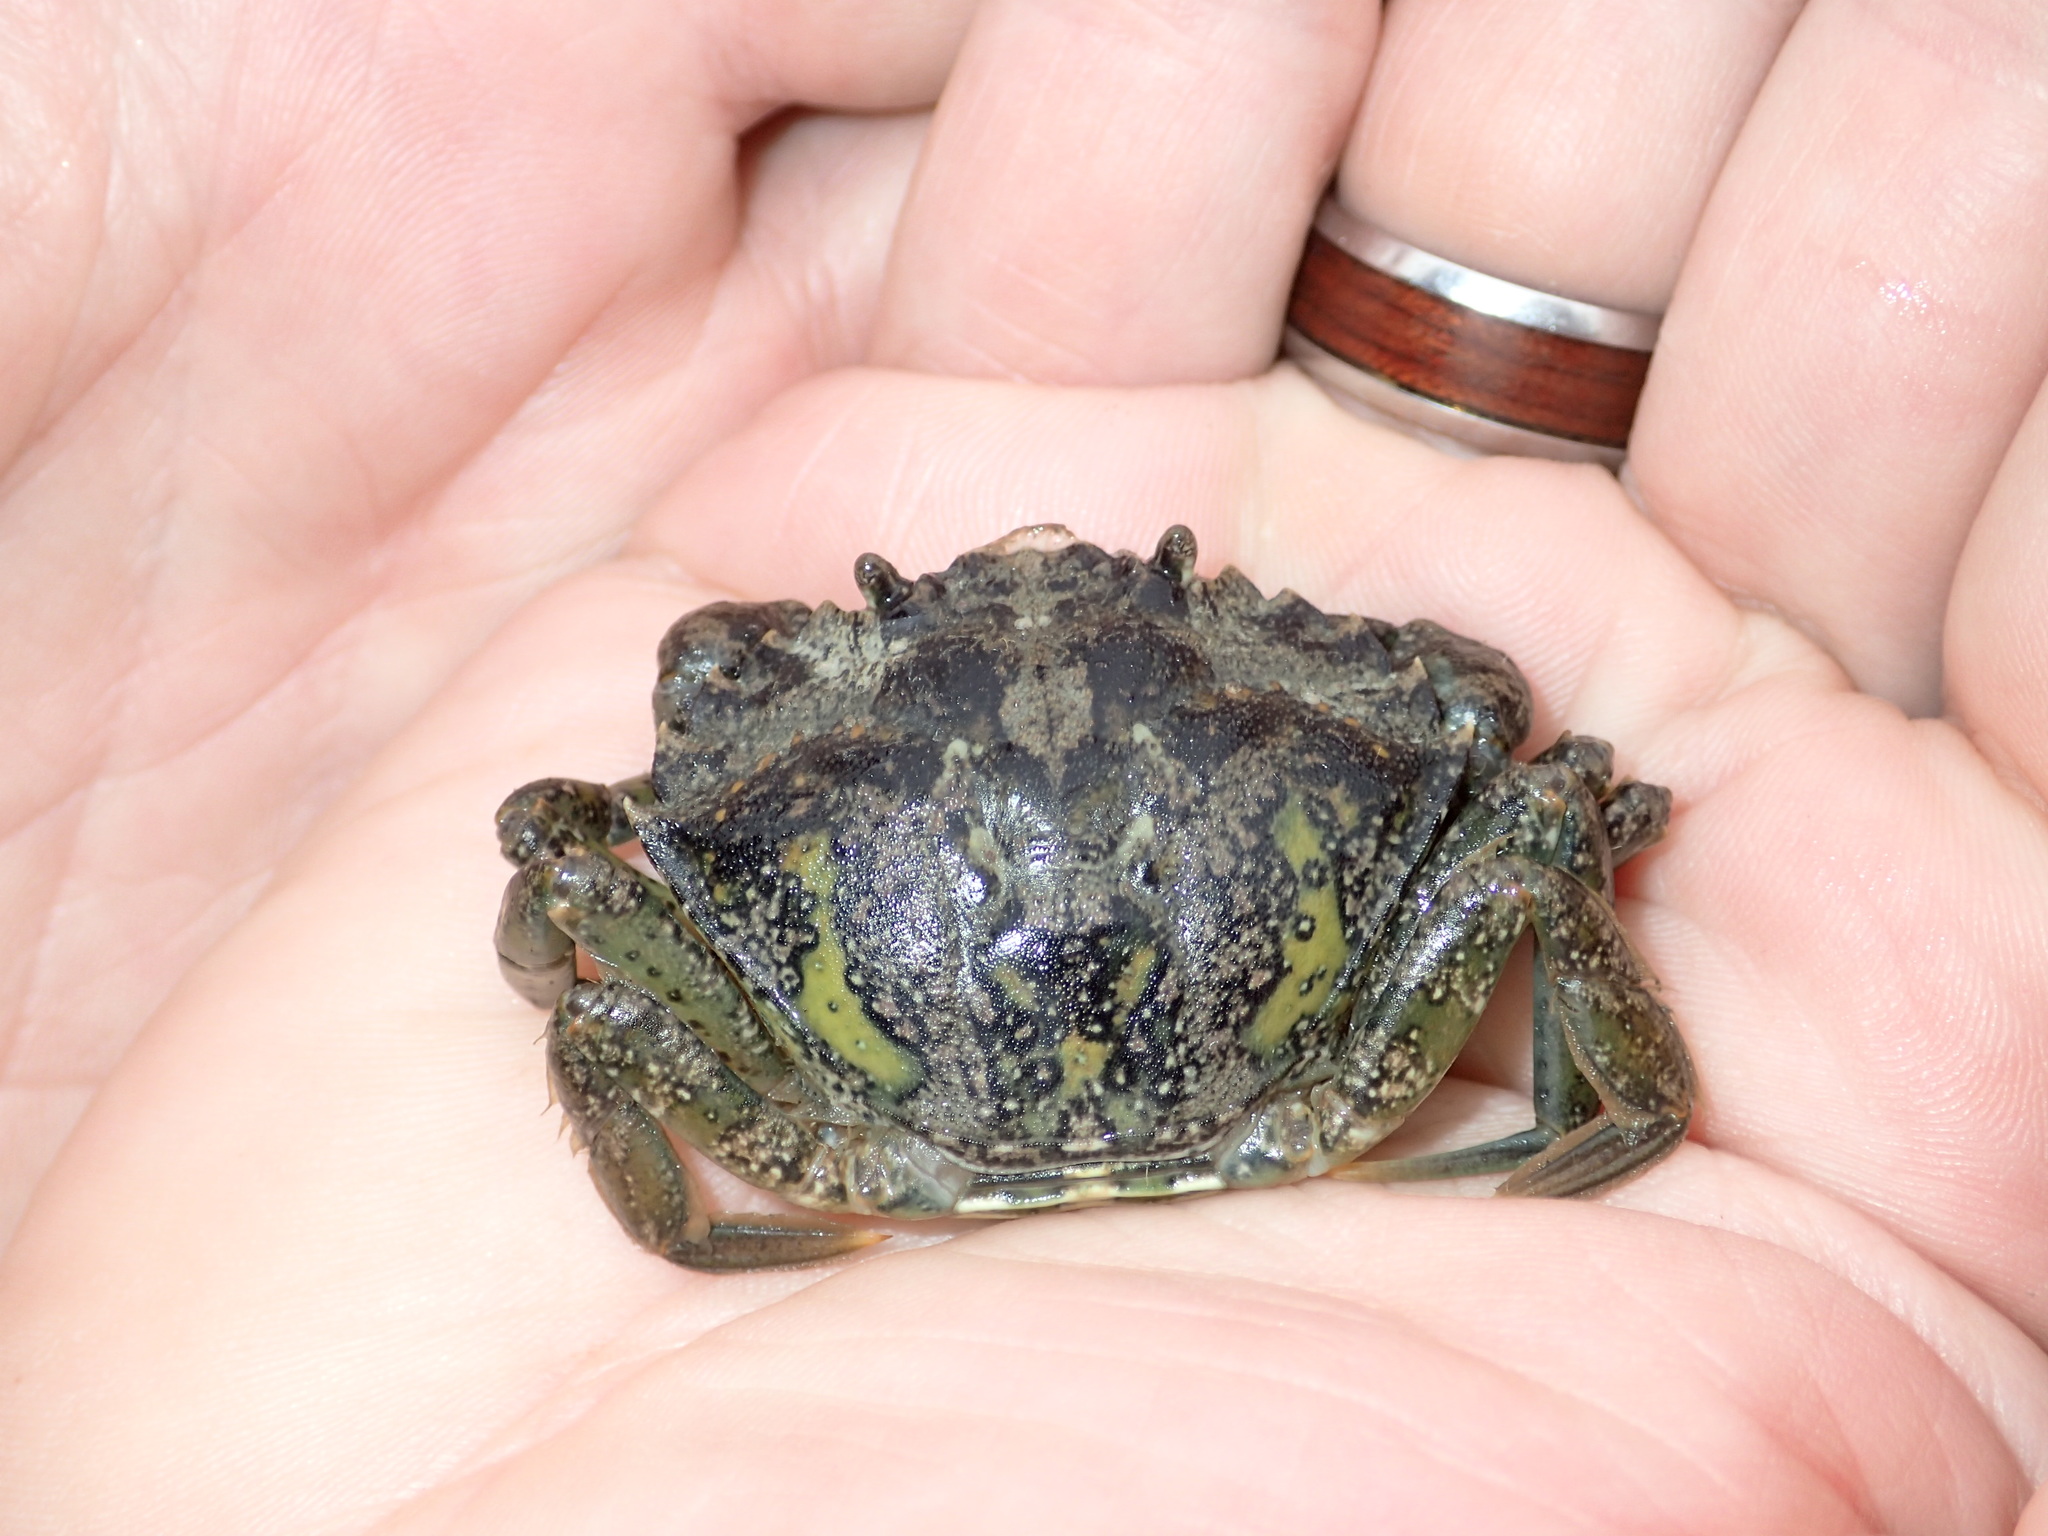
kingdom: Animalia
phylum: Arthropoda
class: Malacostraca
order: Decapoda
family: Carcinidae
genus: Carcinus
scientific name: Carcinus maenas
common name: European green crab
